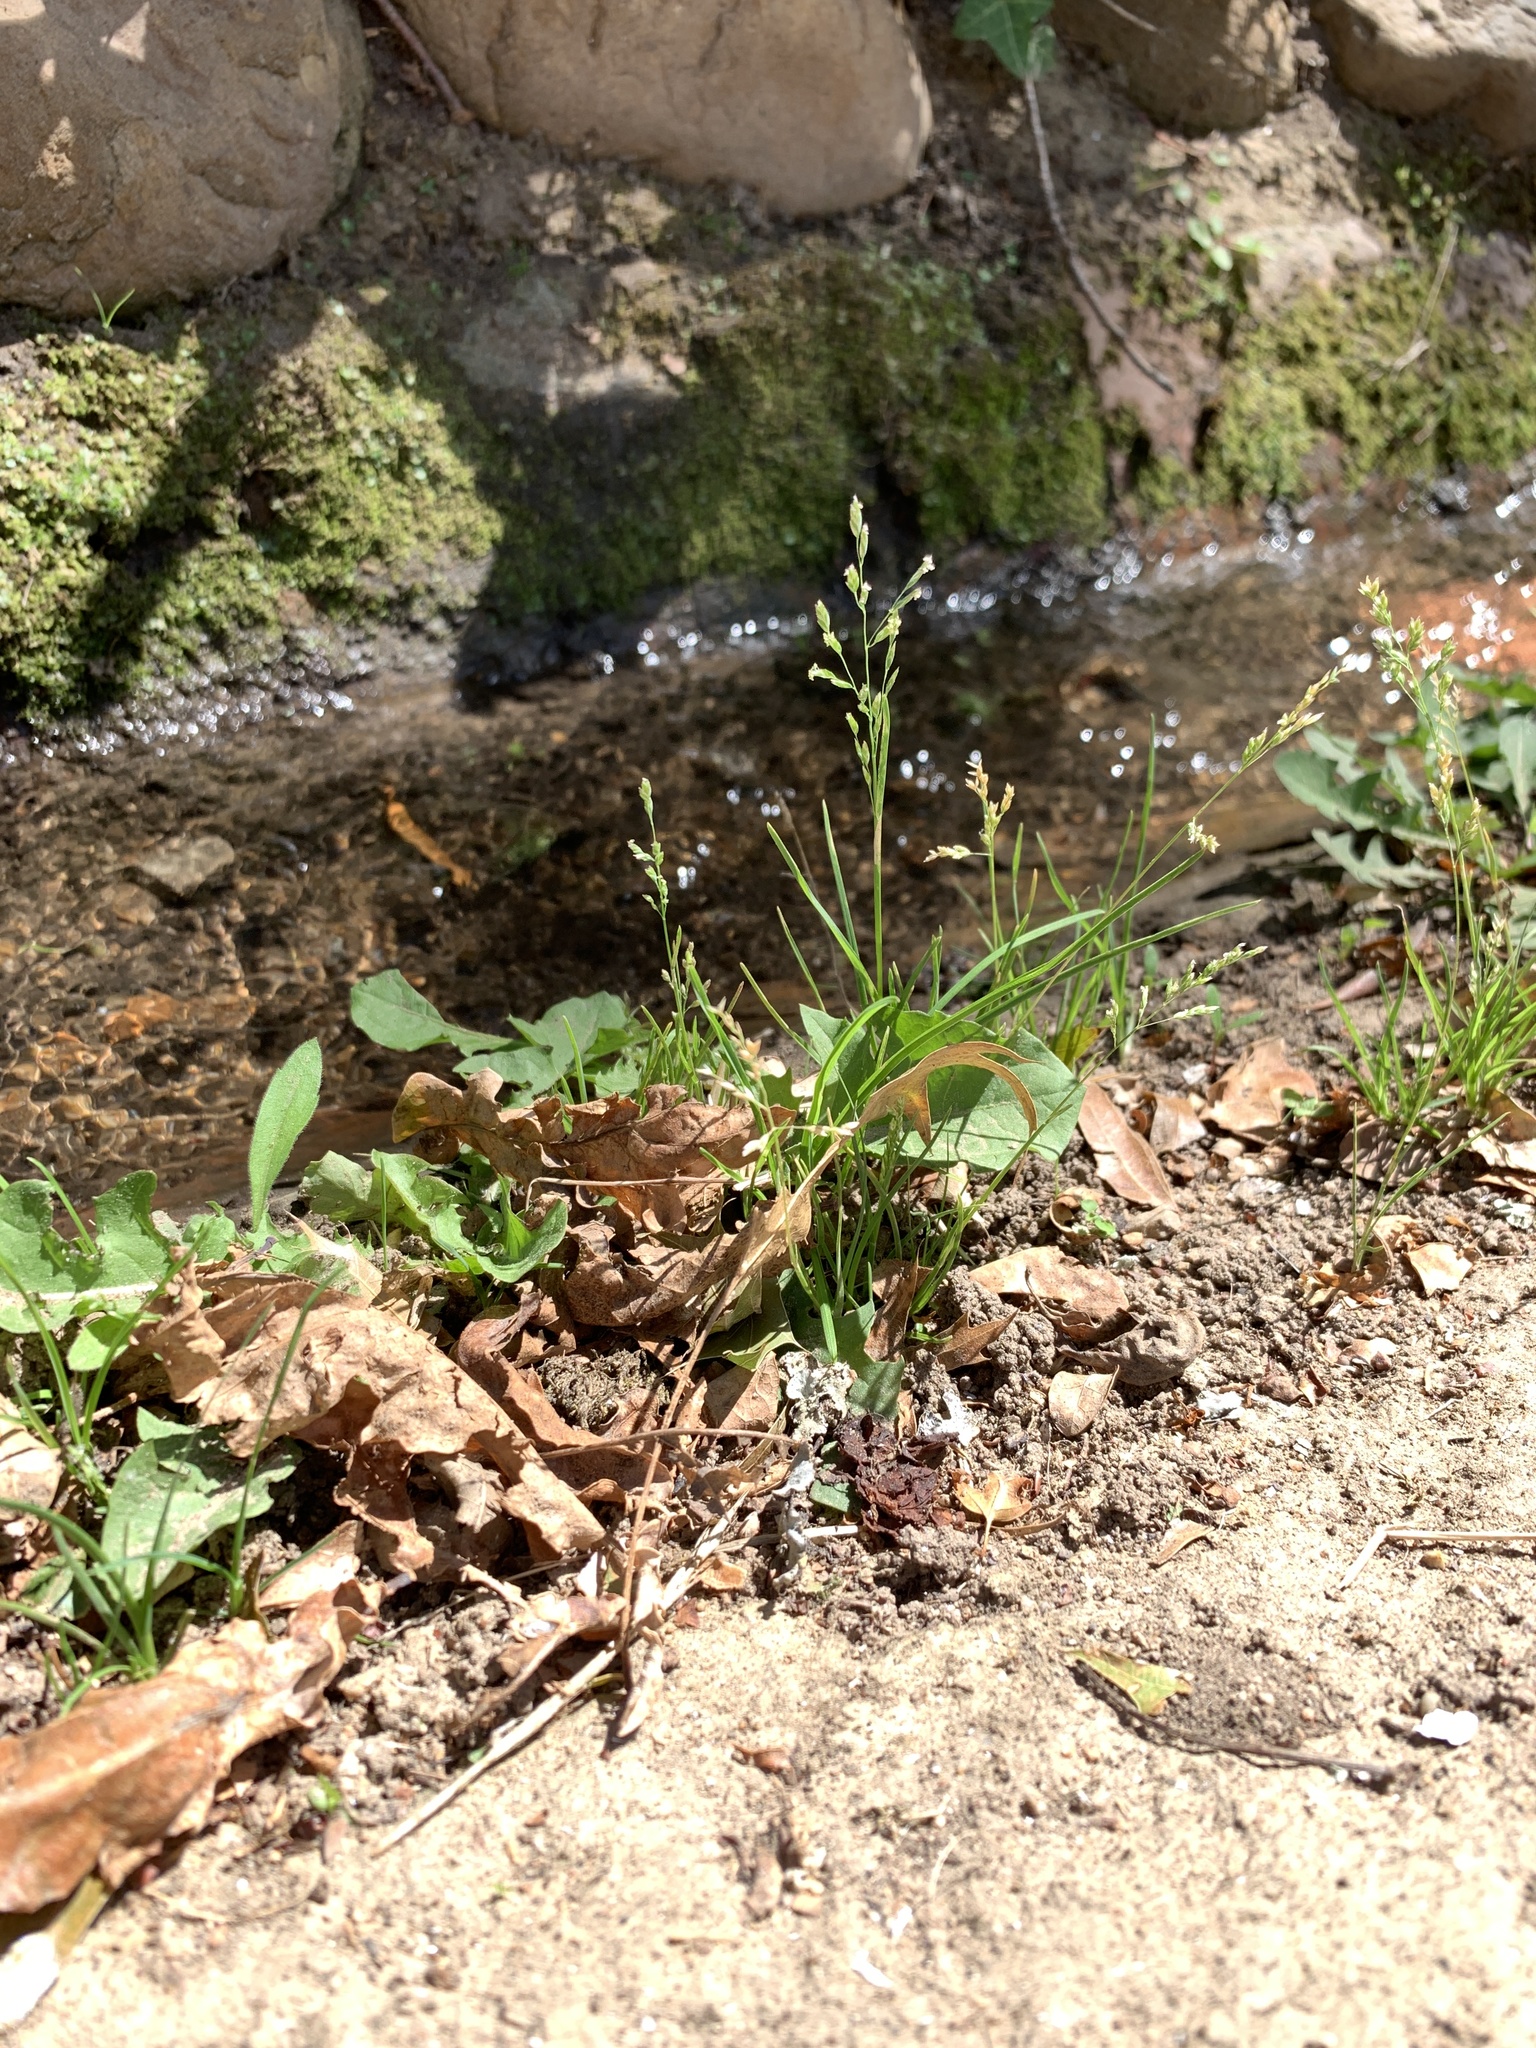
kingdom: Plantae
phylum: Tracheophyta
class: Liliopsida
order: Poales
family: Poaceae
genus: Poa
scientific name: Poa annua
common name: Annual bluegrass
